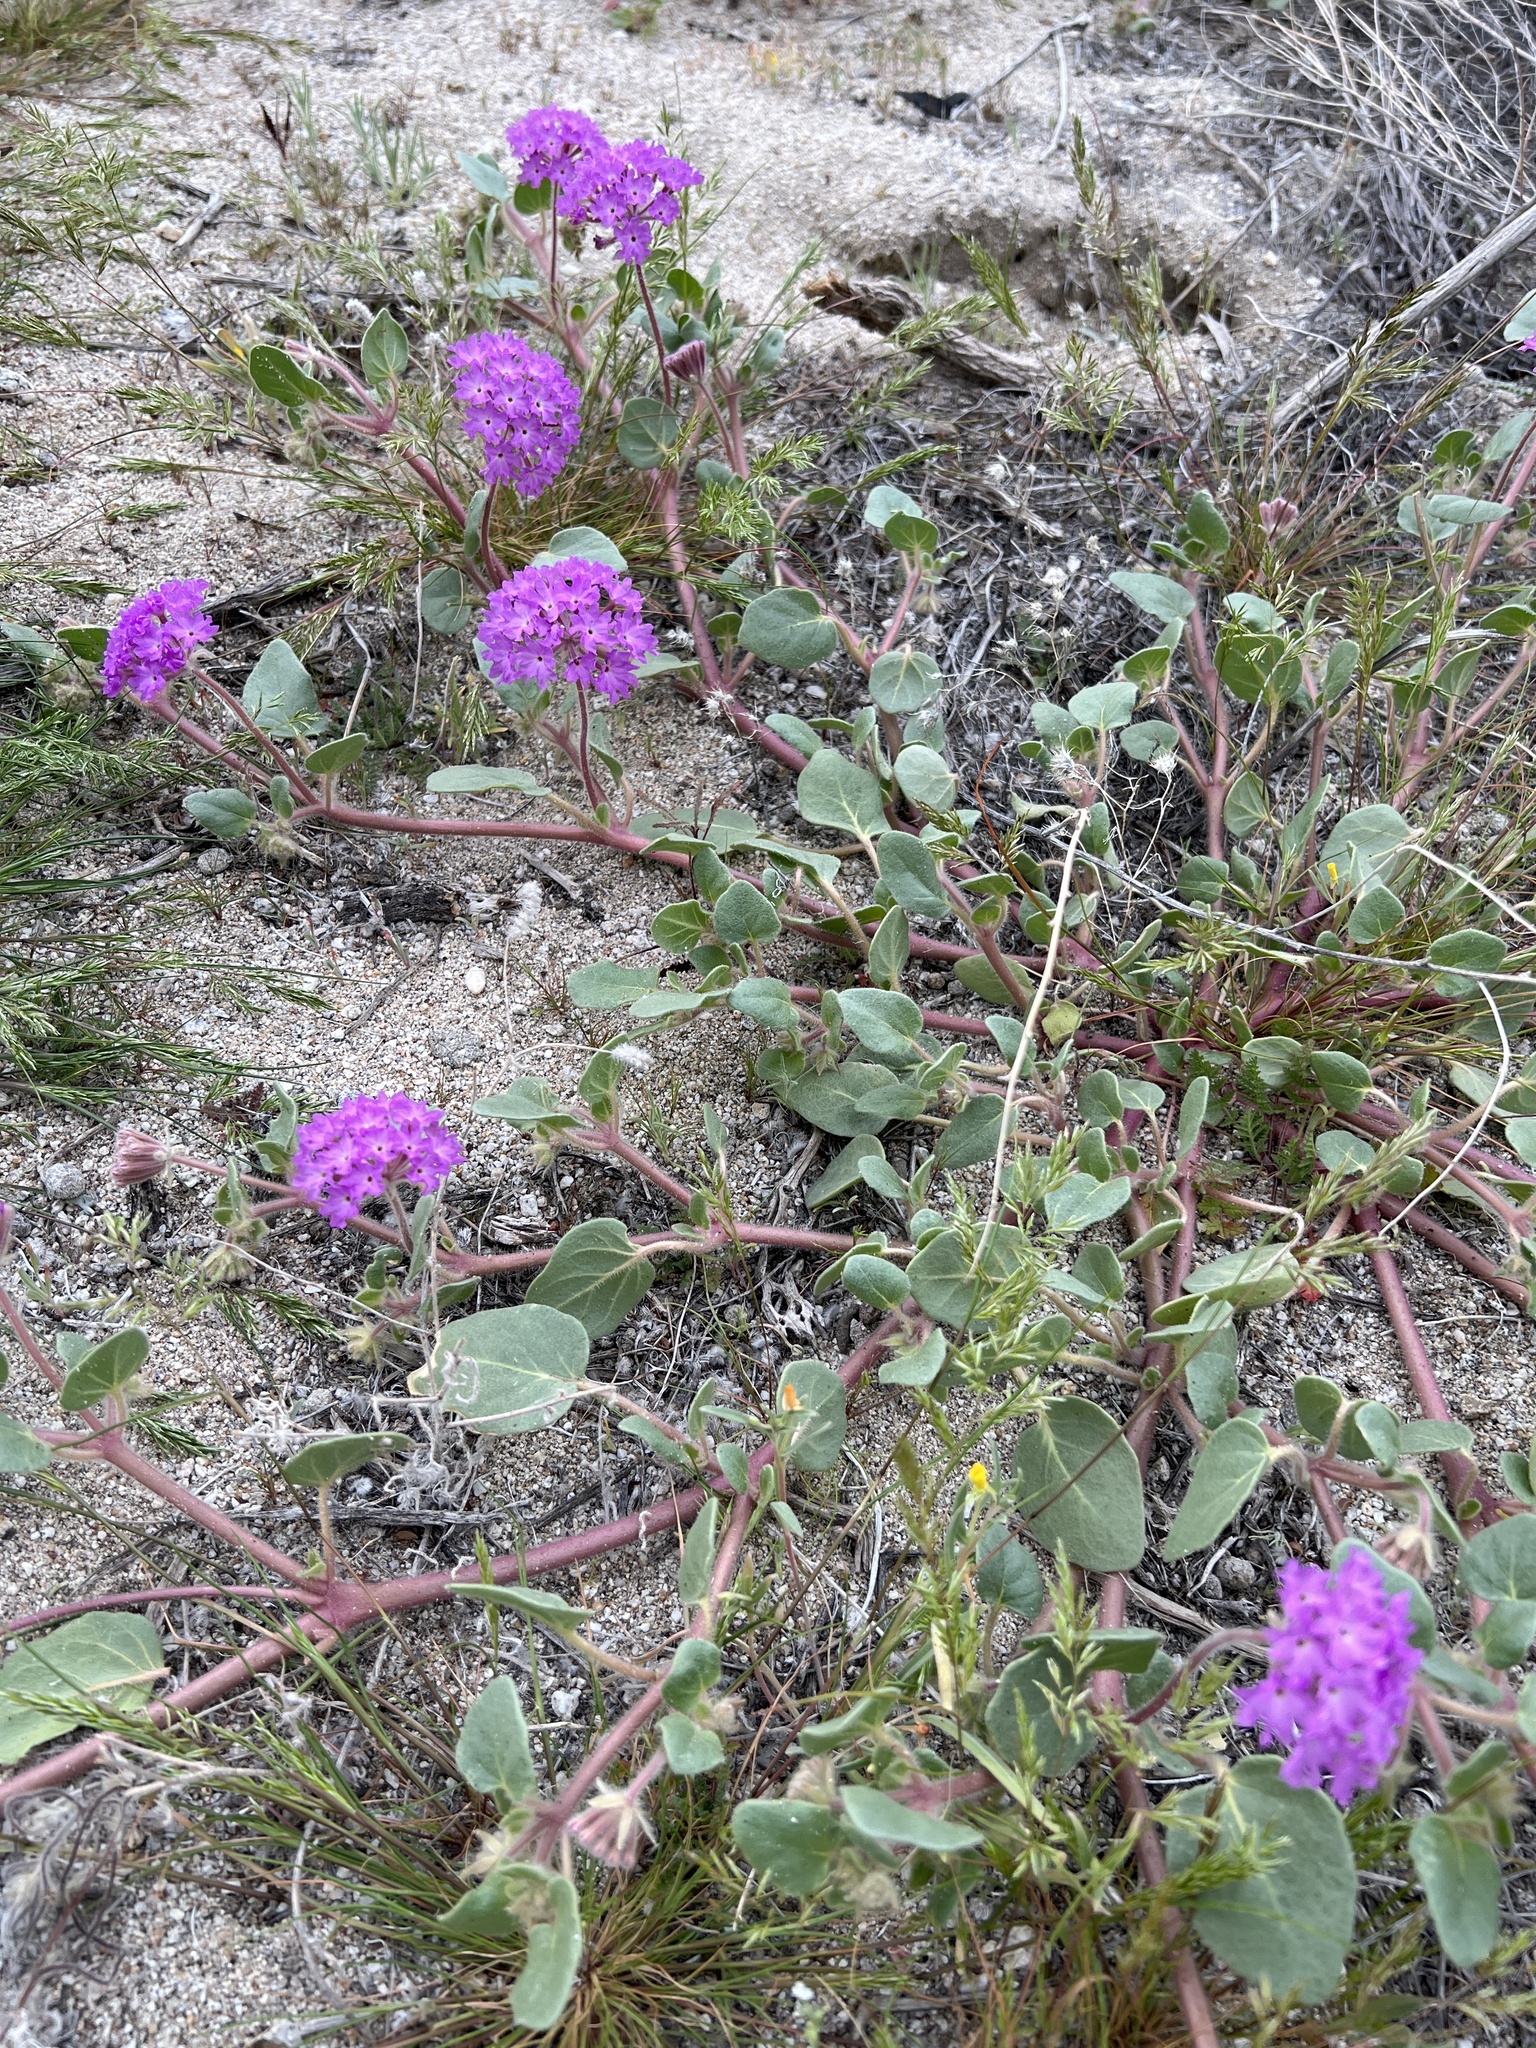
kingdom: Plantae
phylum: Tracheophyta
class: Magnoliopsida
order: Caryophyllales
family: Nyctaginaceae
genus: Abronia
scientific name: Abronia villosa
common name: Desert sand-verbena
